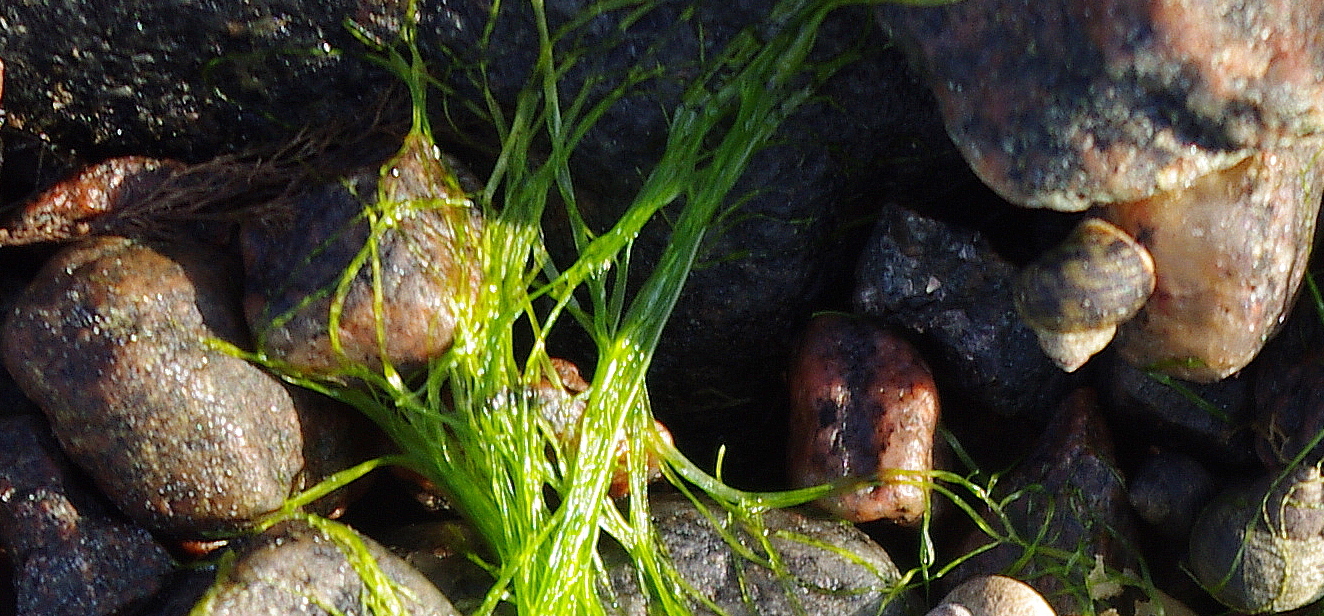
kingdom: Plantae
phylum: Chlorophyta
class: Ulvophyceae
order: Ulvales
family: Ulvaceae
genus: Ulva
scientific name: Ulva intestinalis
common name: Gut weed
